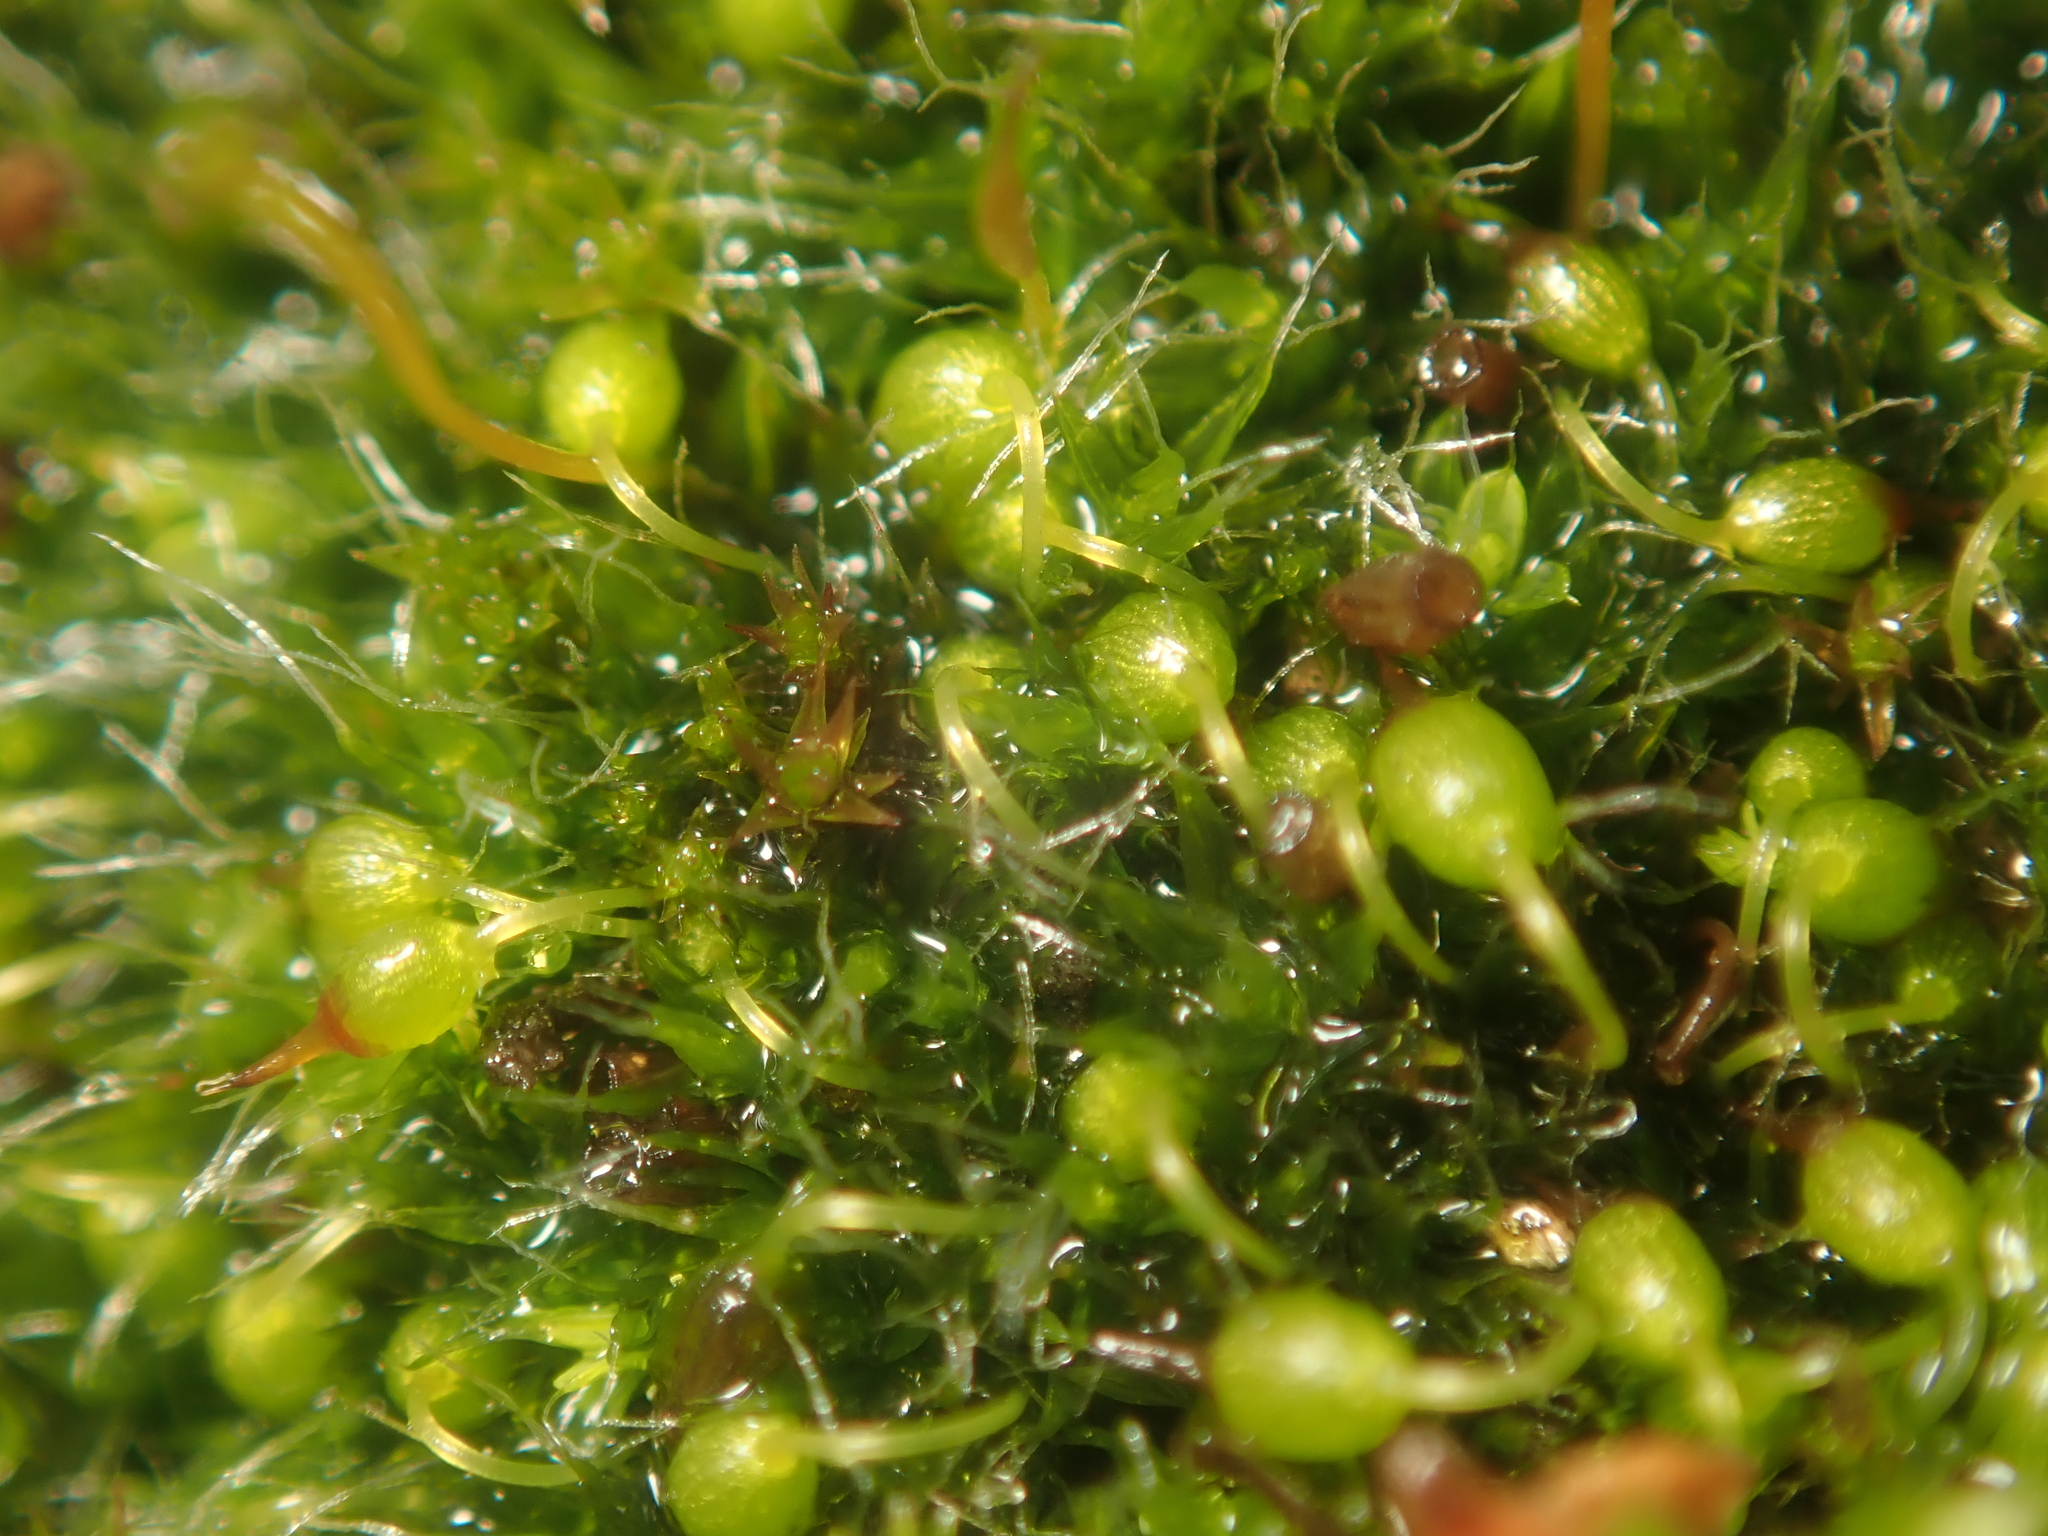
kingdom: Plantae
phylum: Bryophyta
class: Bryopsida
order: Grimmiales
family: Grimmiaceae
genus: Grimmia
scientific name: Grimmia pulvinata
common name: Grey-cushioned grimmia
